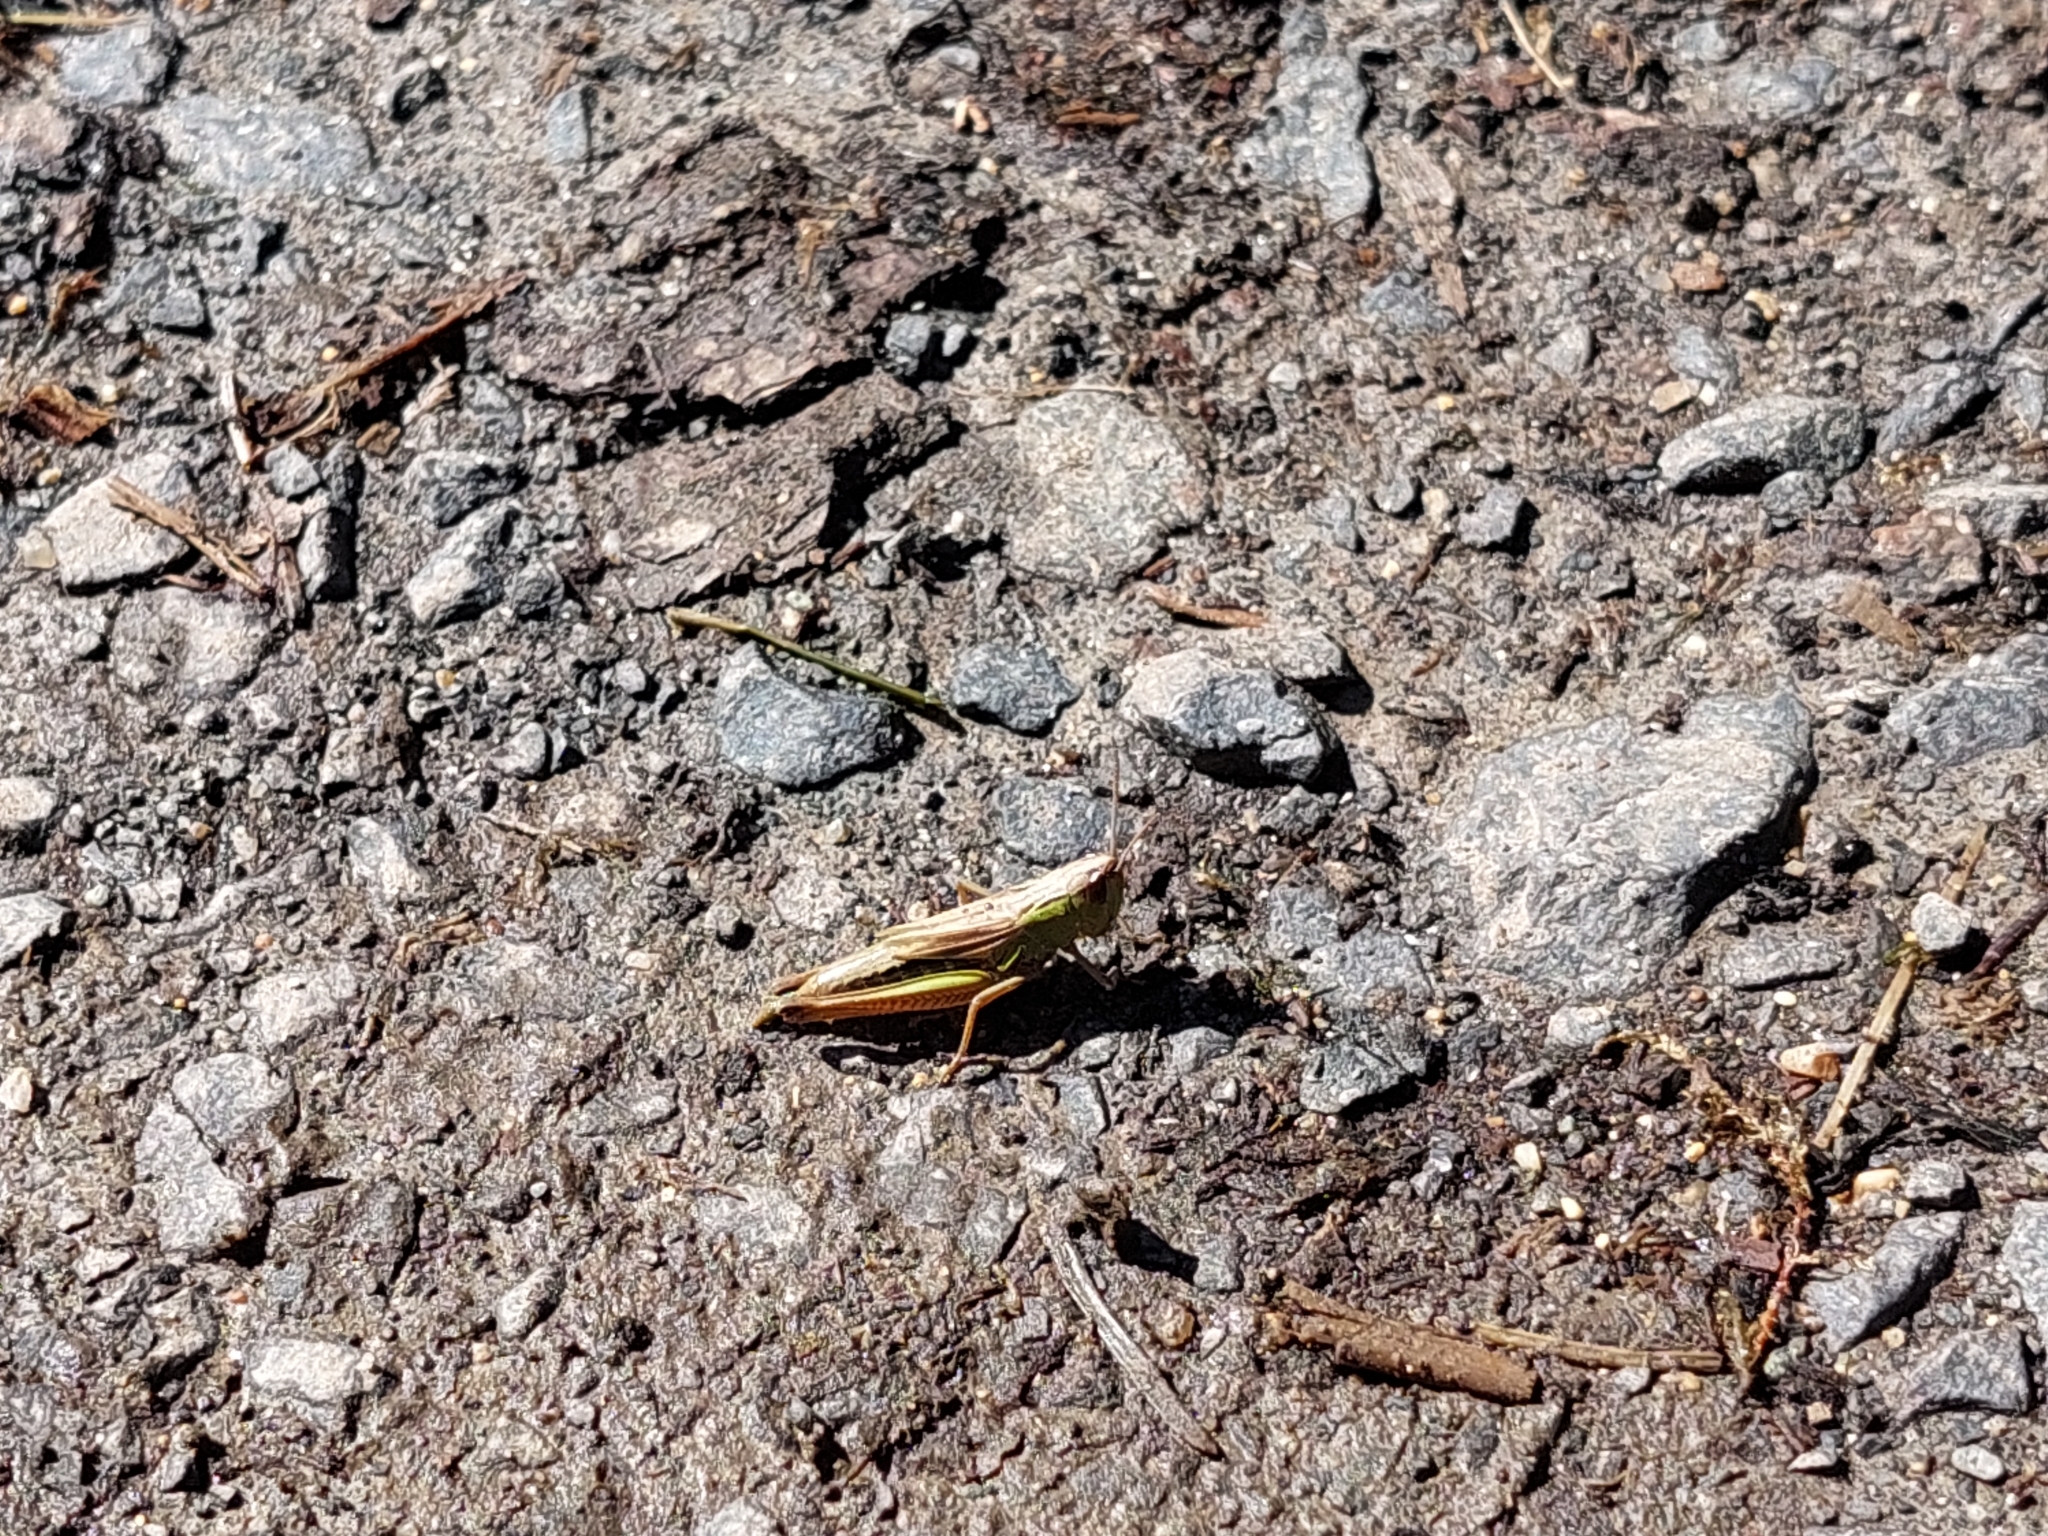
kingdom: Animalia
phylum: Arthropoda
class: Insecta
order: Orthoptera
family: Acrididae
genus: Pseudochorthippus
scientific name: Pseudochorthippus parallelus
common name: Meadow grasshopper
